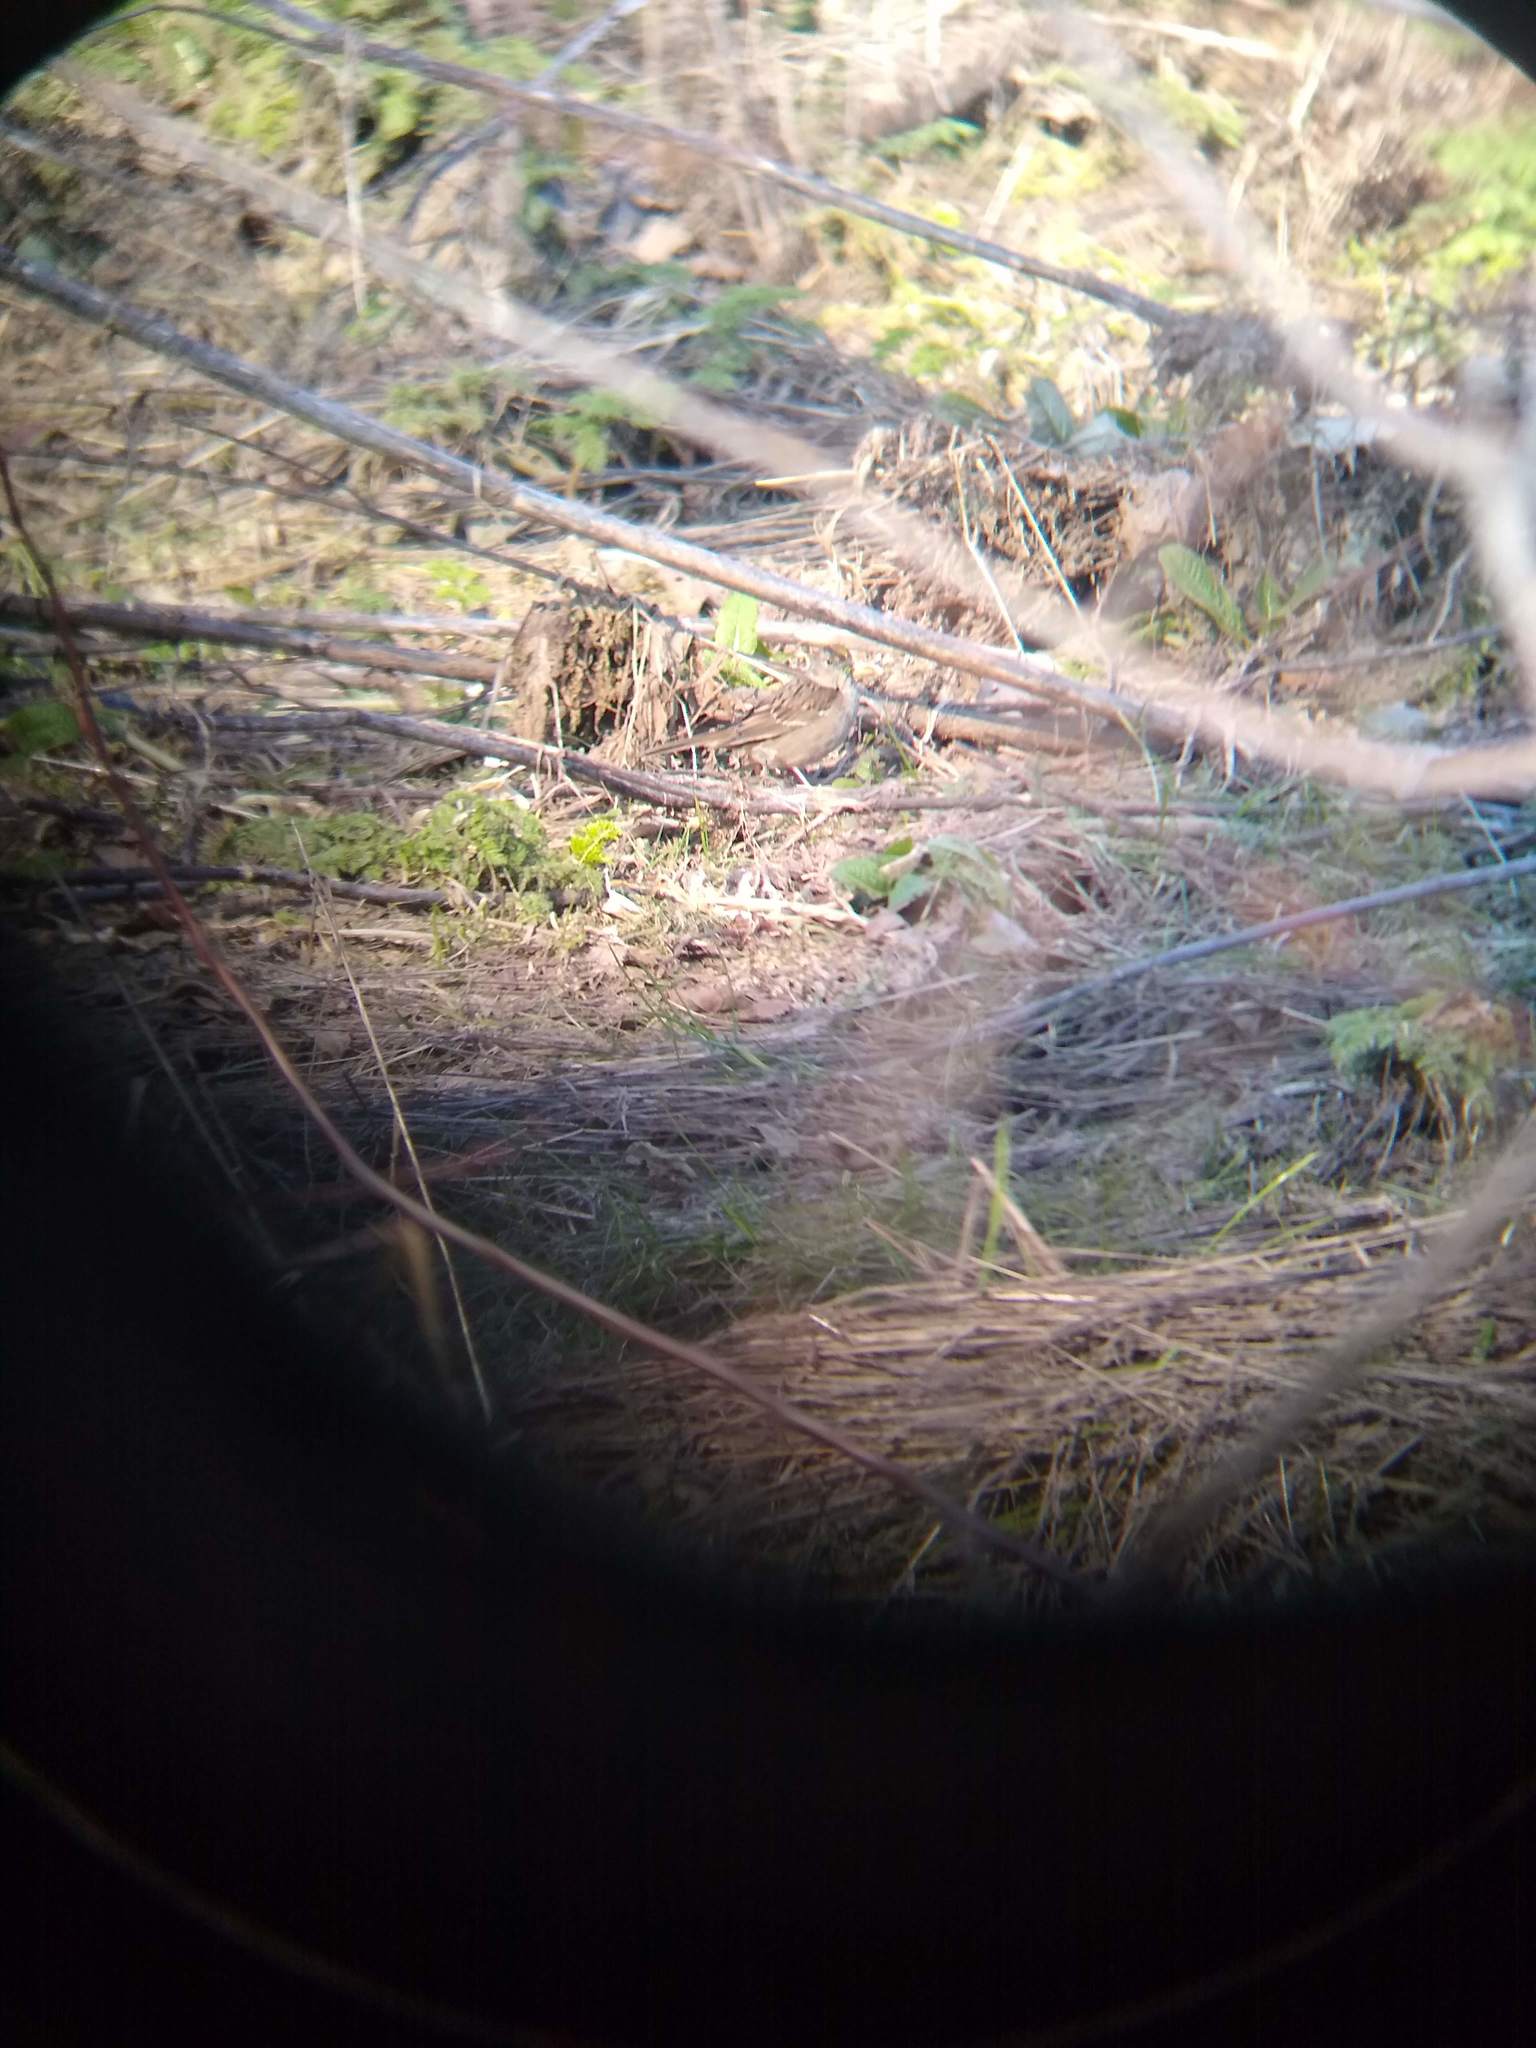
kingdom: Animalia
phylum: Chordata
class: Aves
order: Passeriformes
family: Passerellidae
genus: Zonotrichia
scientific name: Zonotrichia atricapilla
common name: Golden-crowned sparrow
